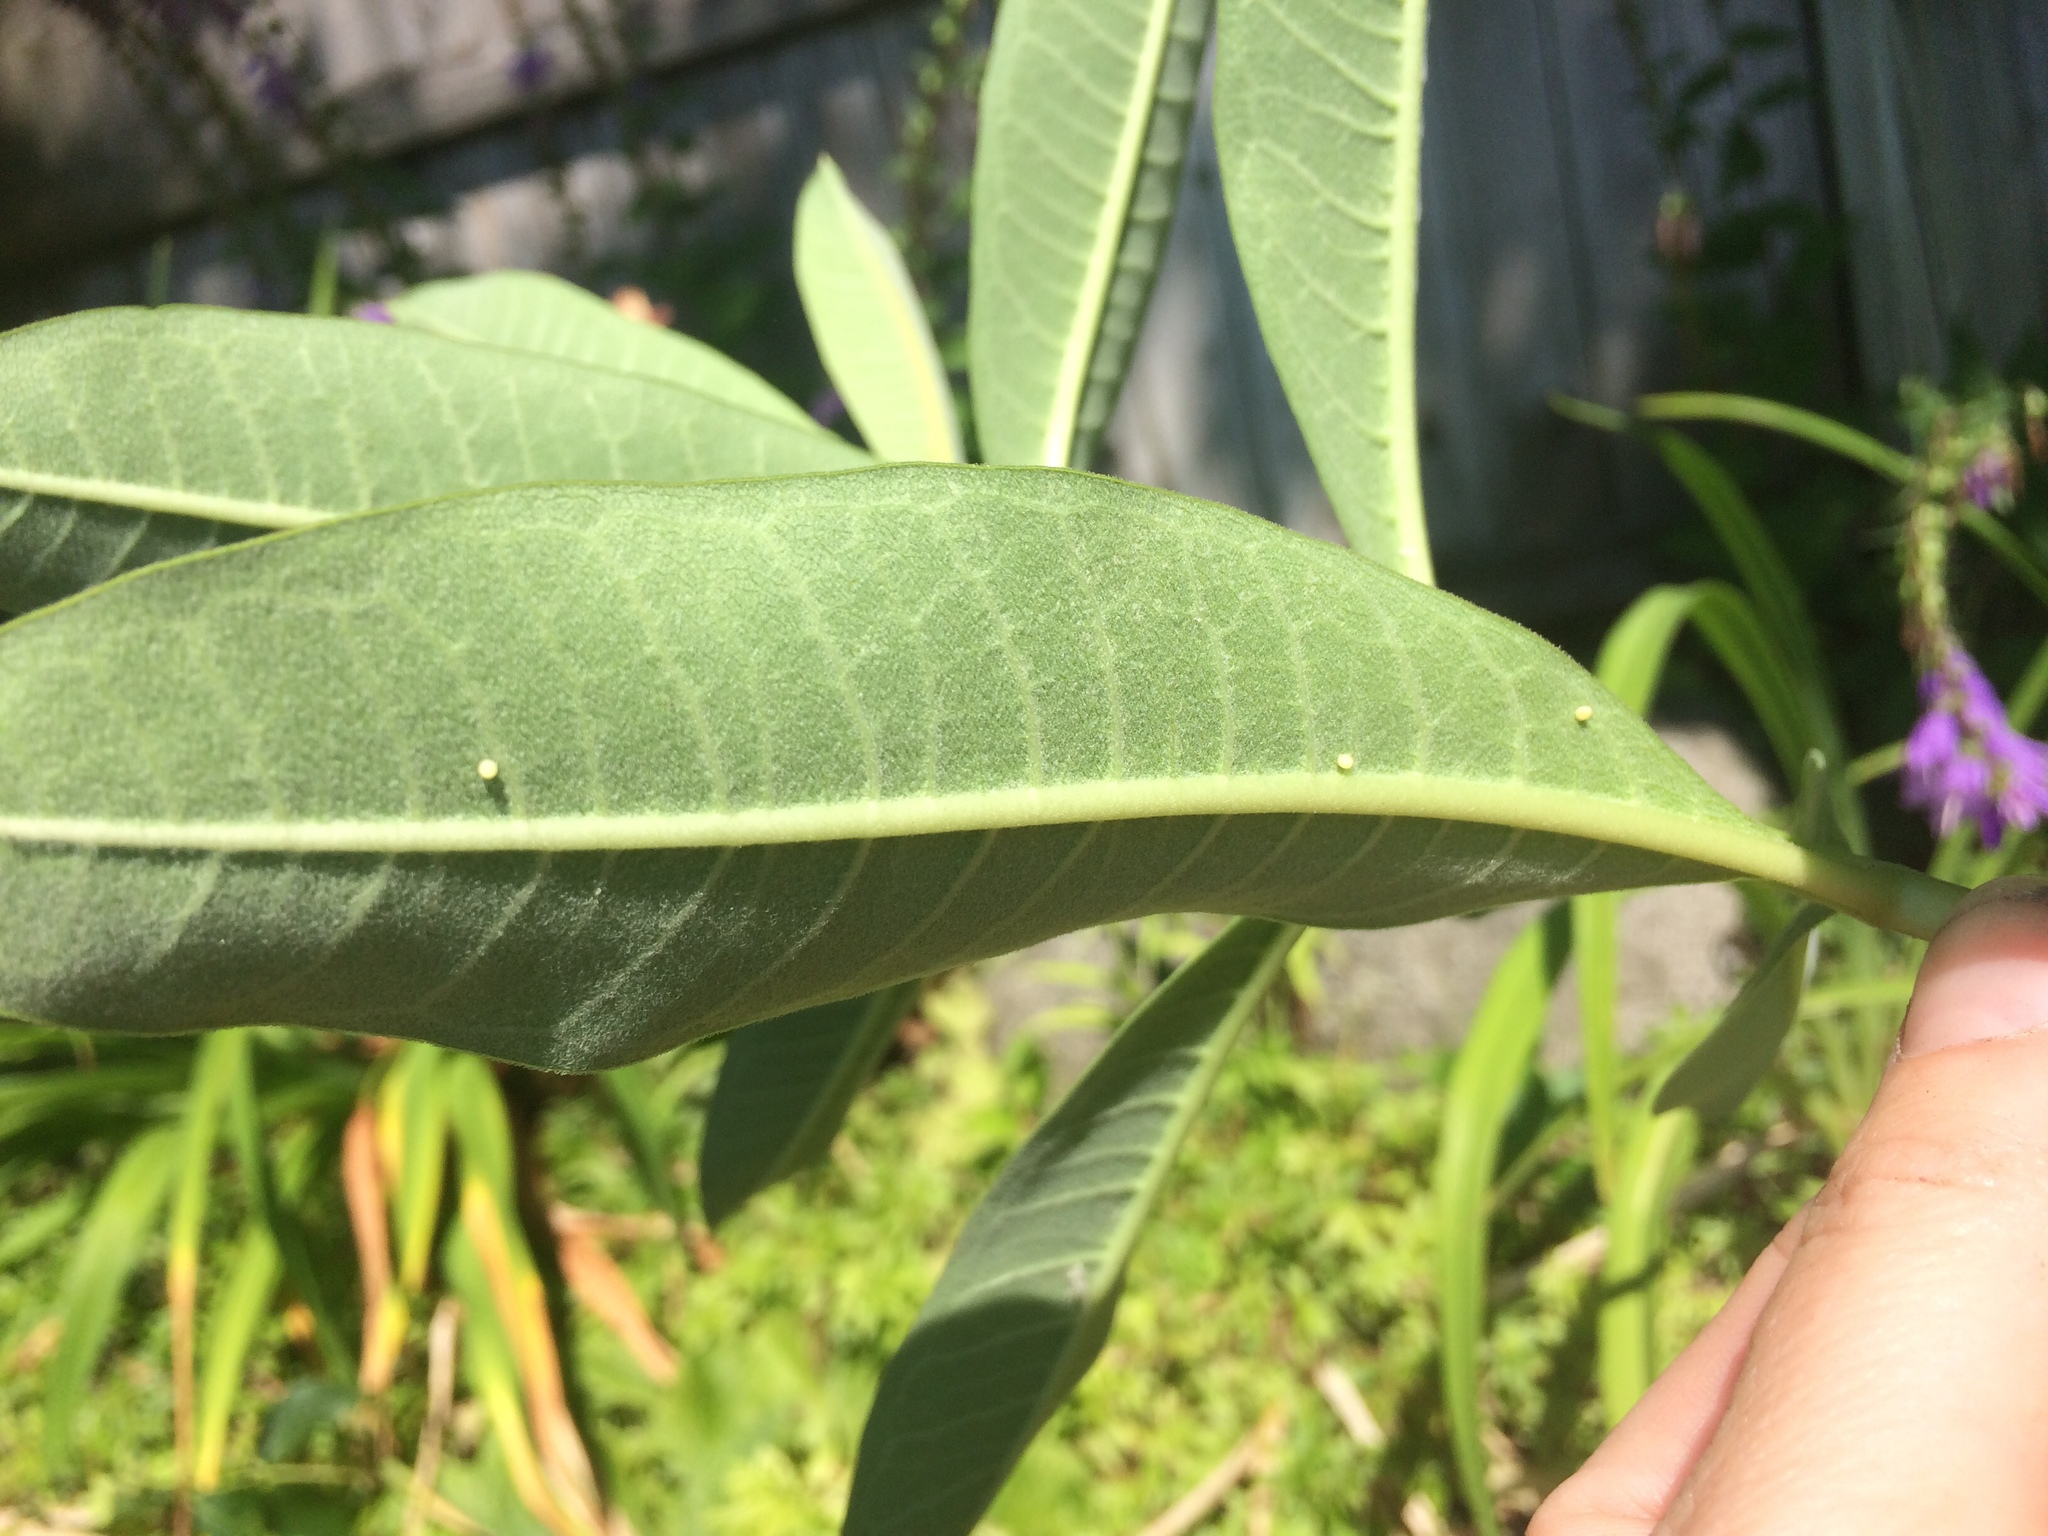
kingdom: Animalia
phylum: Arthropoda
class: Insecta
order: Lepidoptera
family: Nymphalidae
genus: Danaus
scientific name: Danaus plexippus
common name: Monarch
